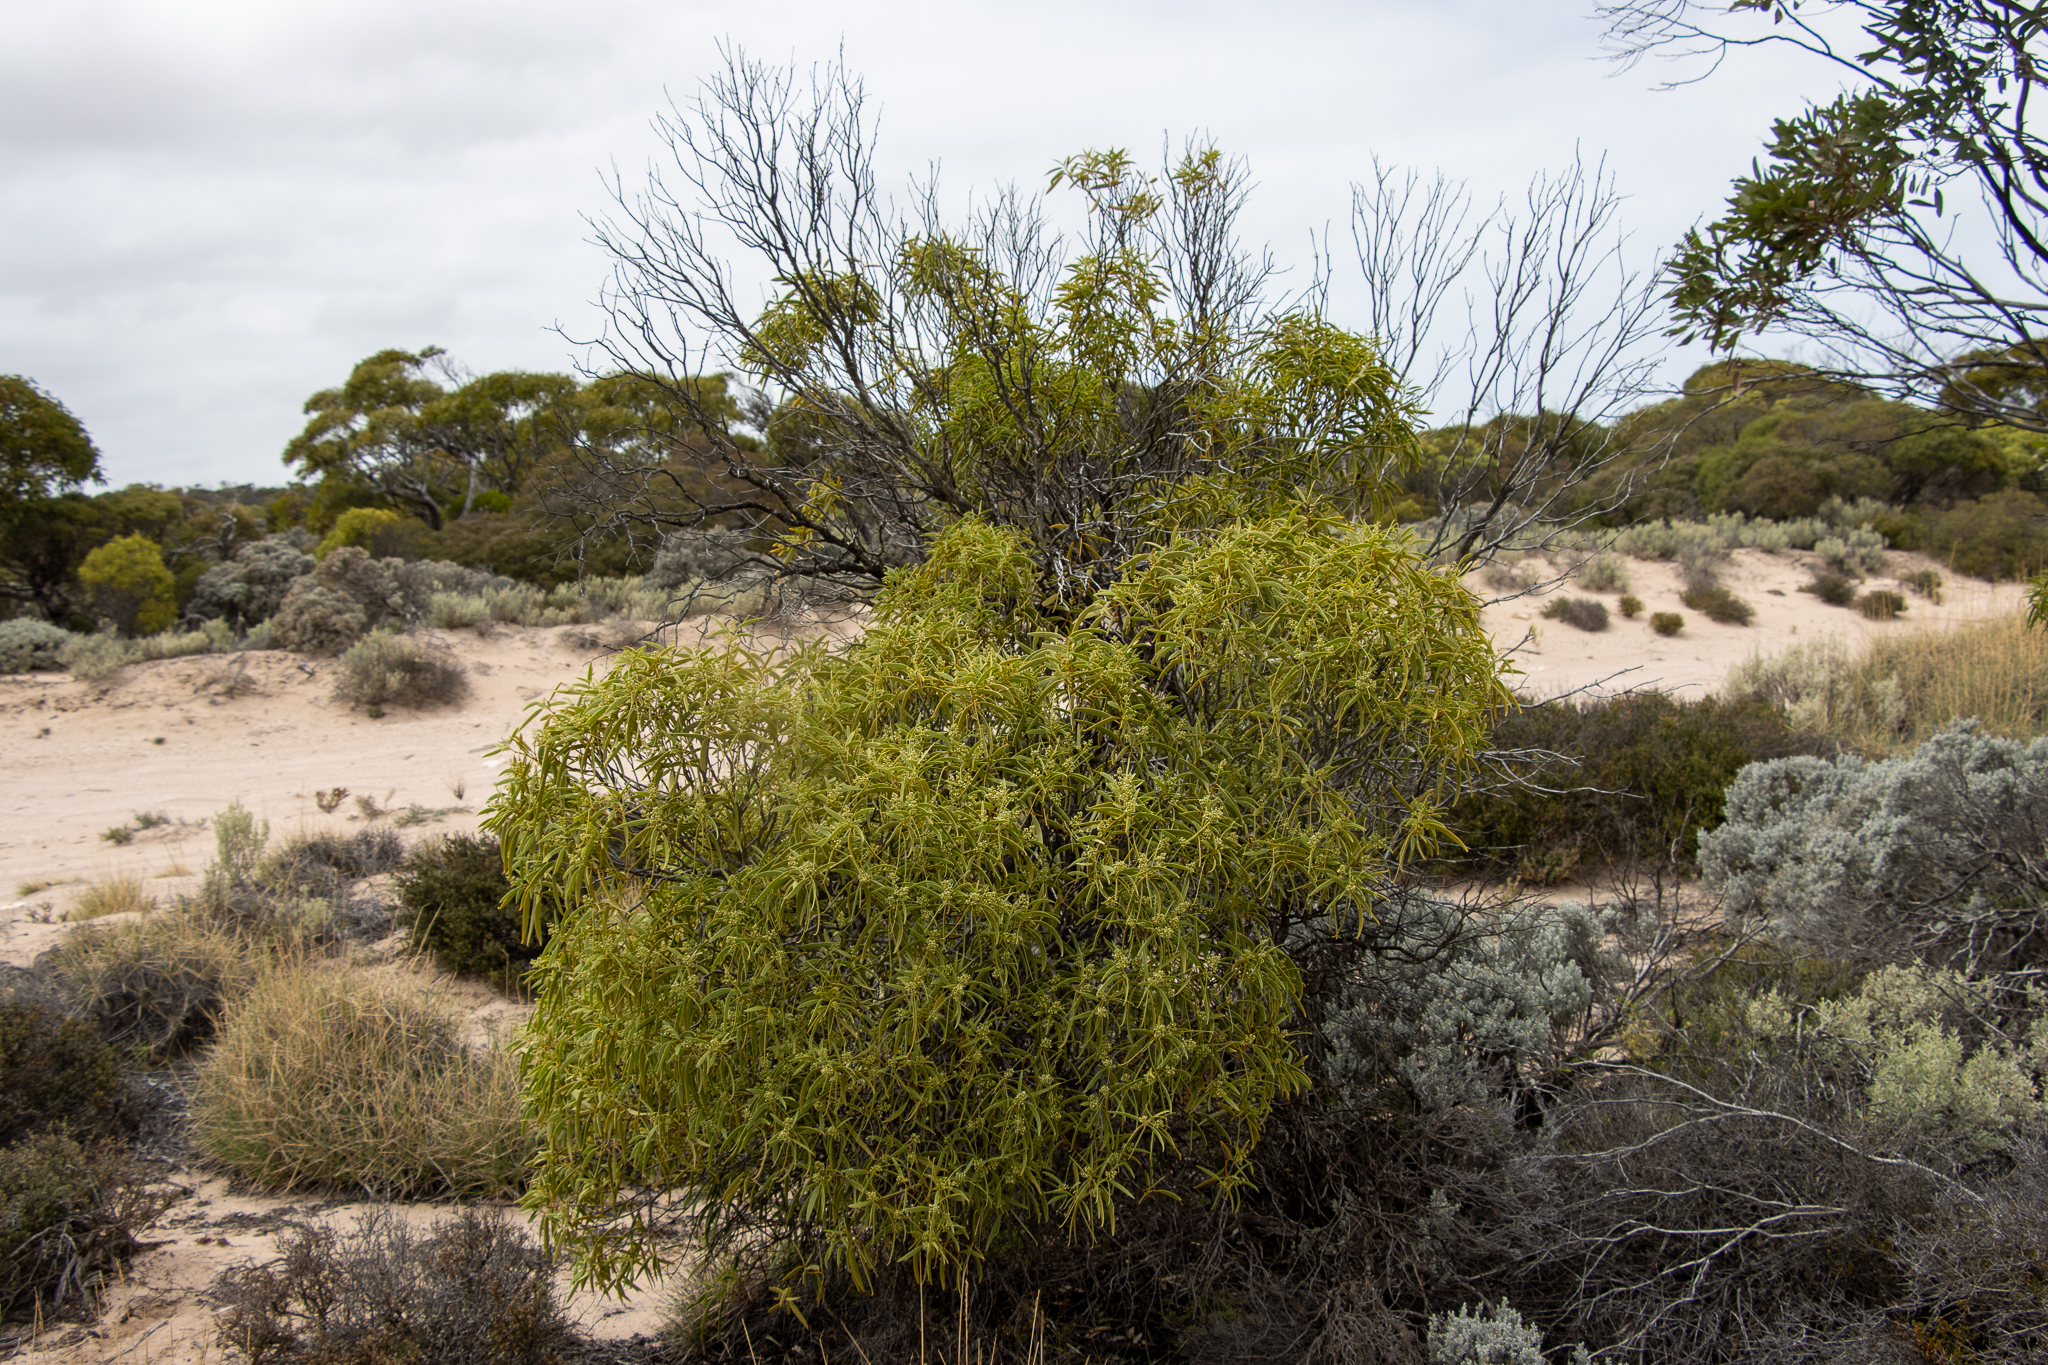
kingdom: Plantae
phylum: Tracheophyta
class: Magnoliopsida
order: Santalales
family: Santalaceae
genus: Santalum
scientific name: Santalum acuminatum
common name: Sweet quandong
